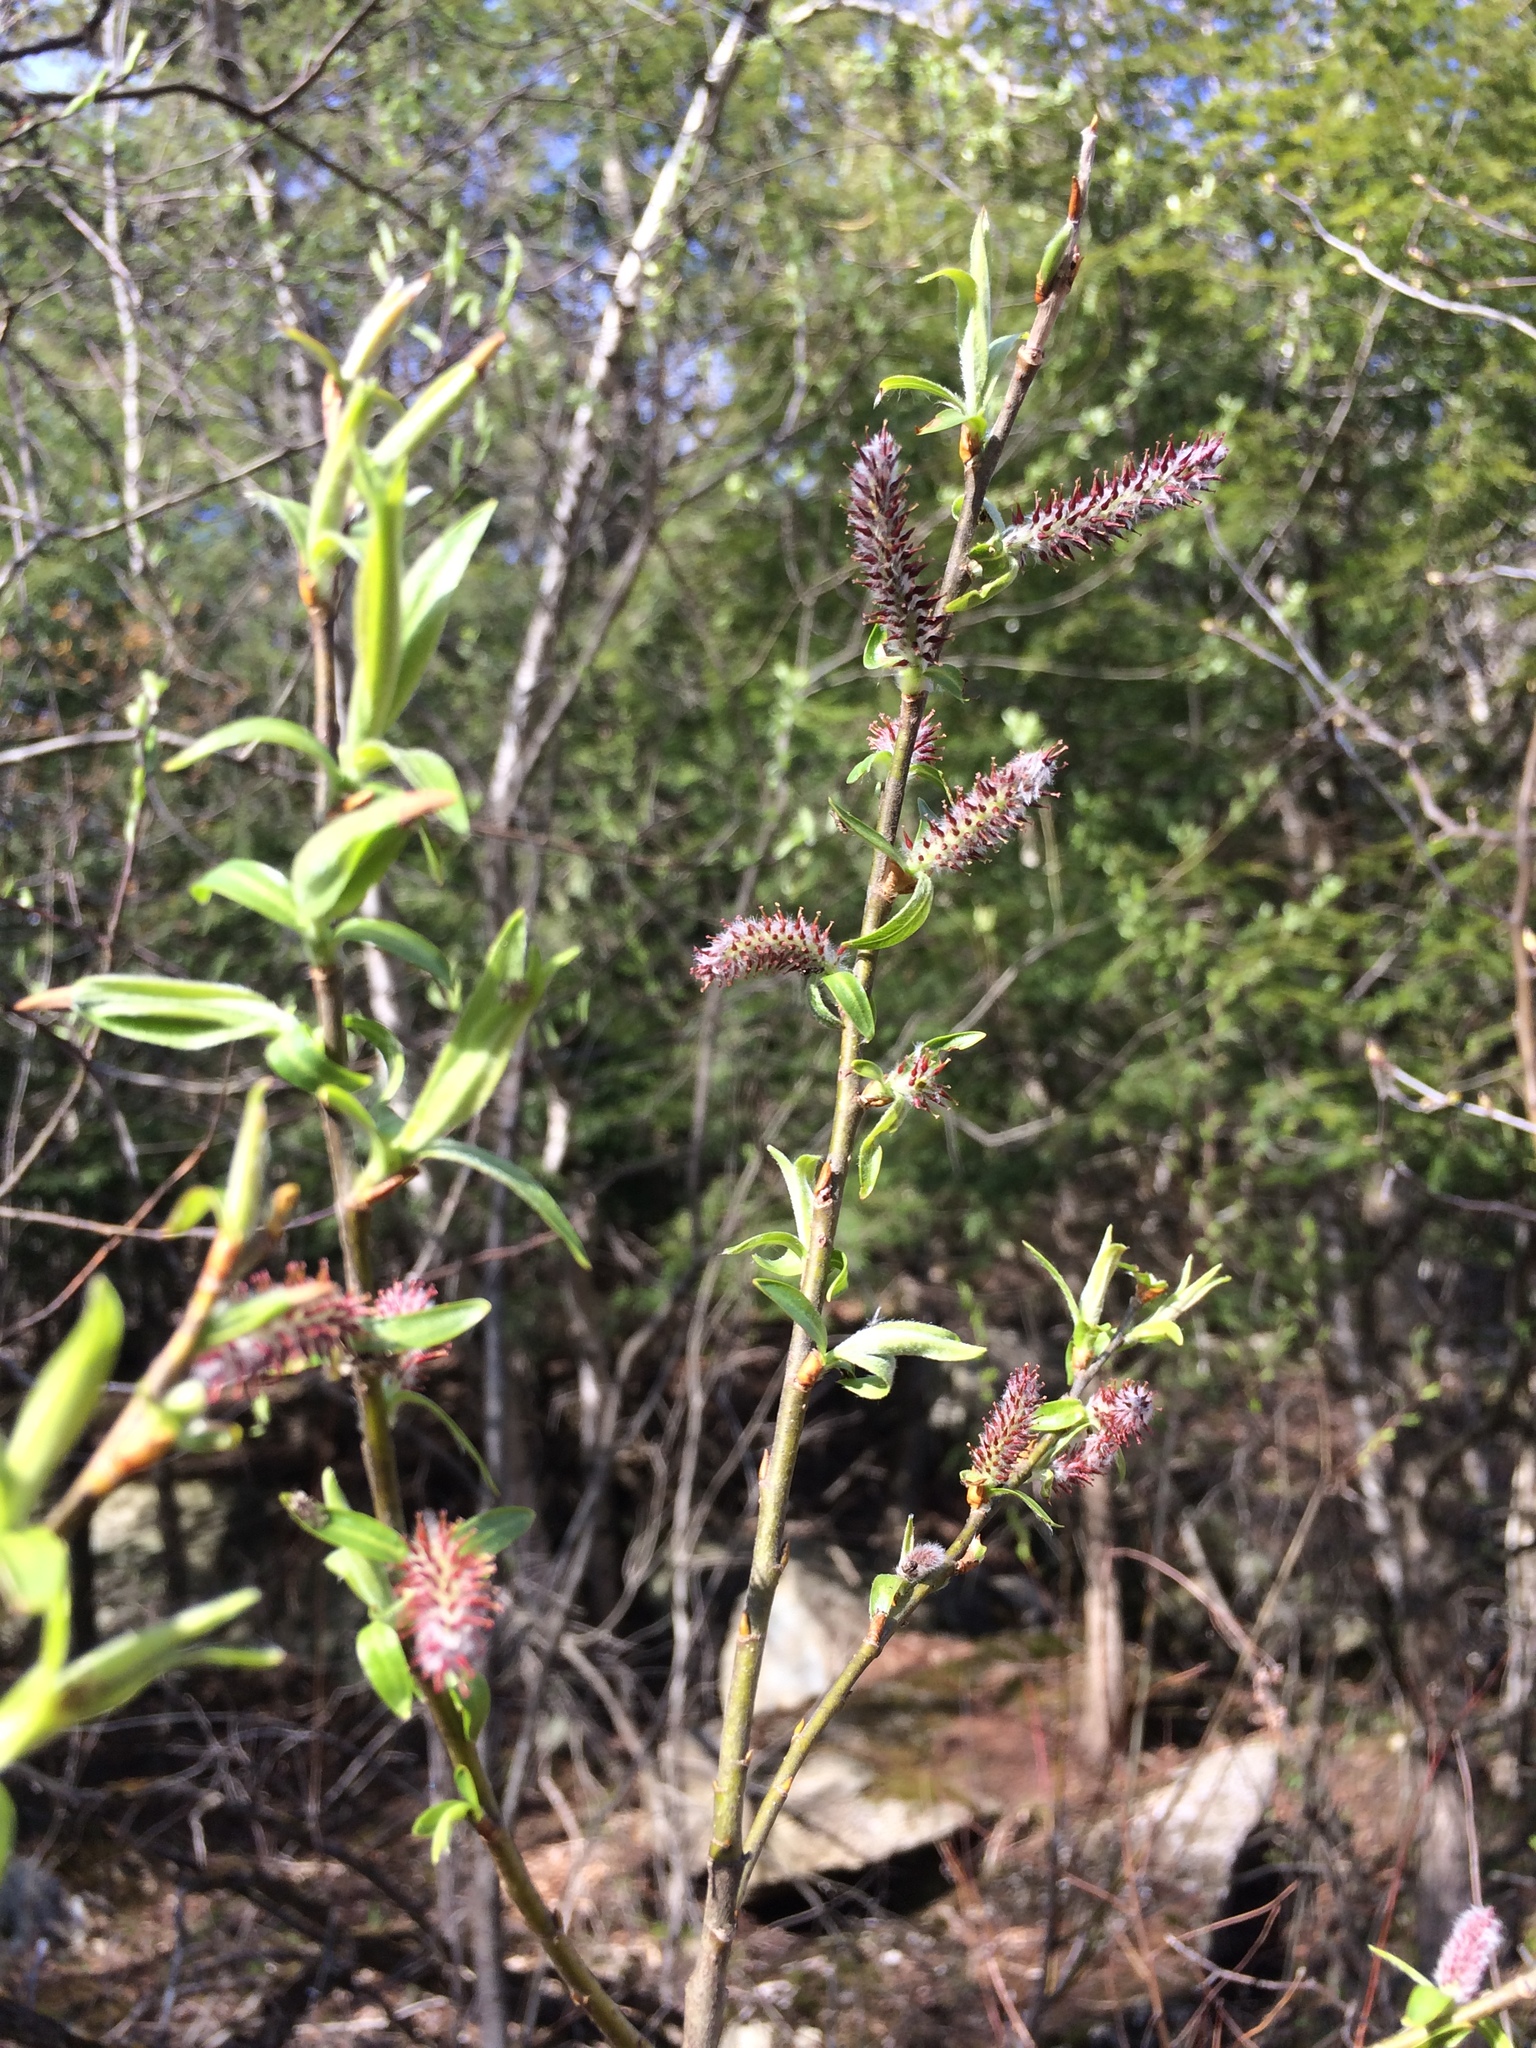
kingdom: Plantae
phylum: Tracheophyta
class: Magnoliopsida
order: Malpighiales
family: Salicaceae
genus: Salix
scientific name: Salix eriocephala
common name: Heart-leaved willow
